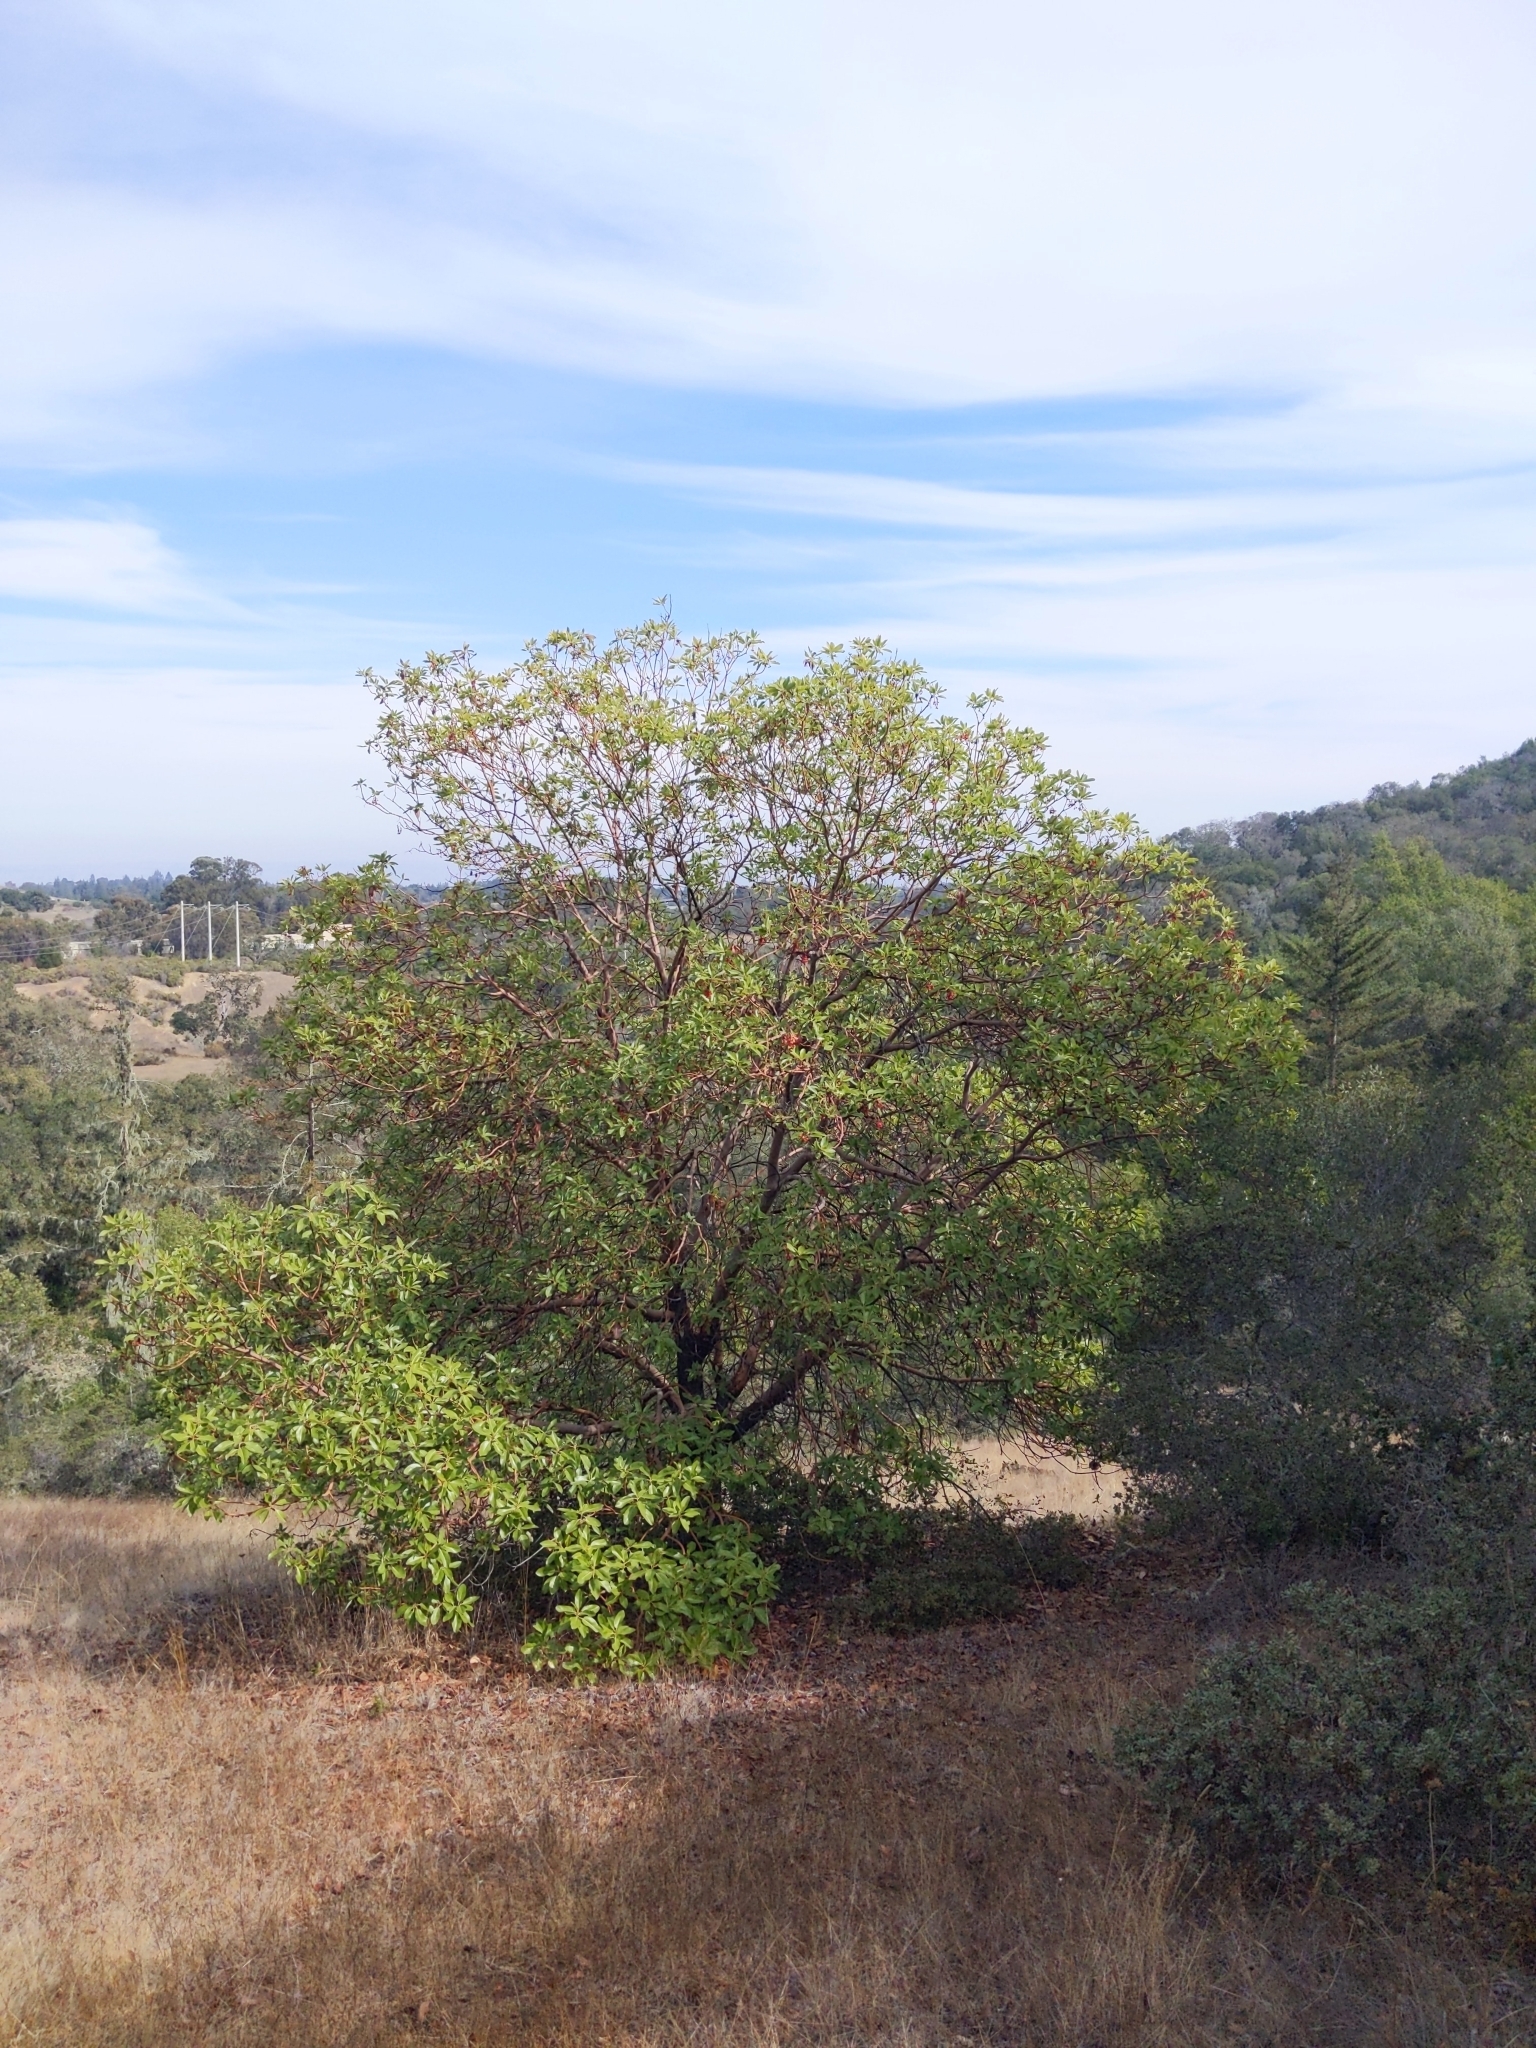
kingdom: Plantae
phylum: Tracheophyta
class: Magnoliopsida
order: Ericales
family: Ericaceae
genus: Arbutus
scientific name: Arbutus menziesii
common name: Pacific madrone
